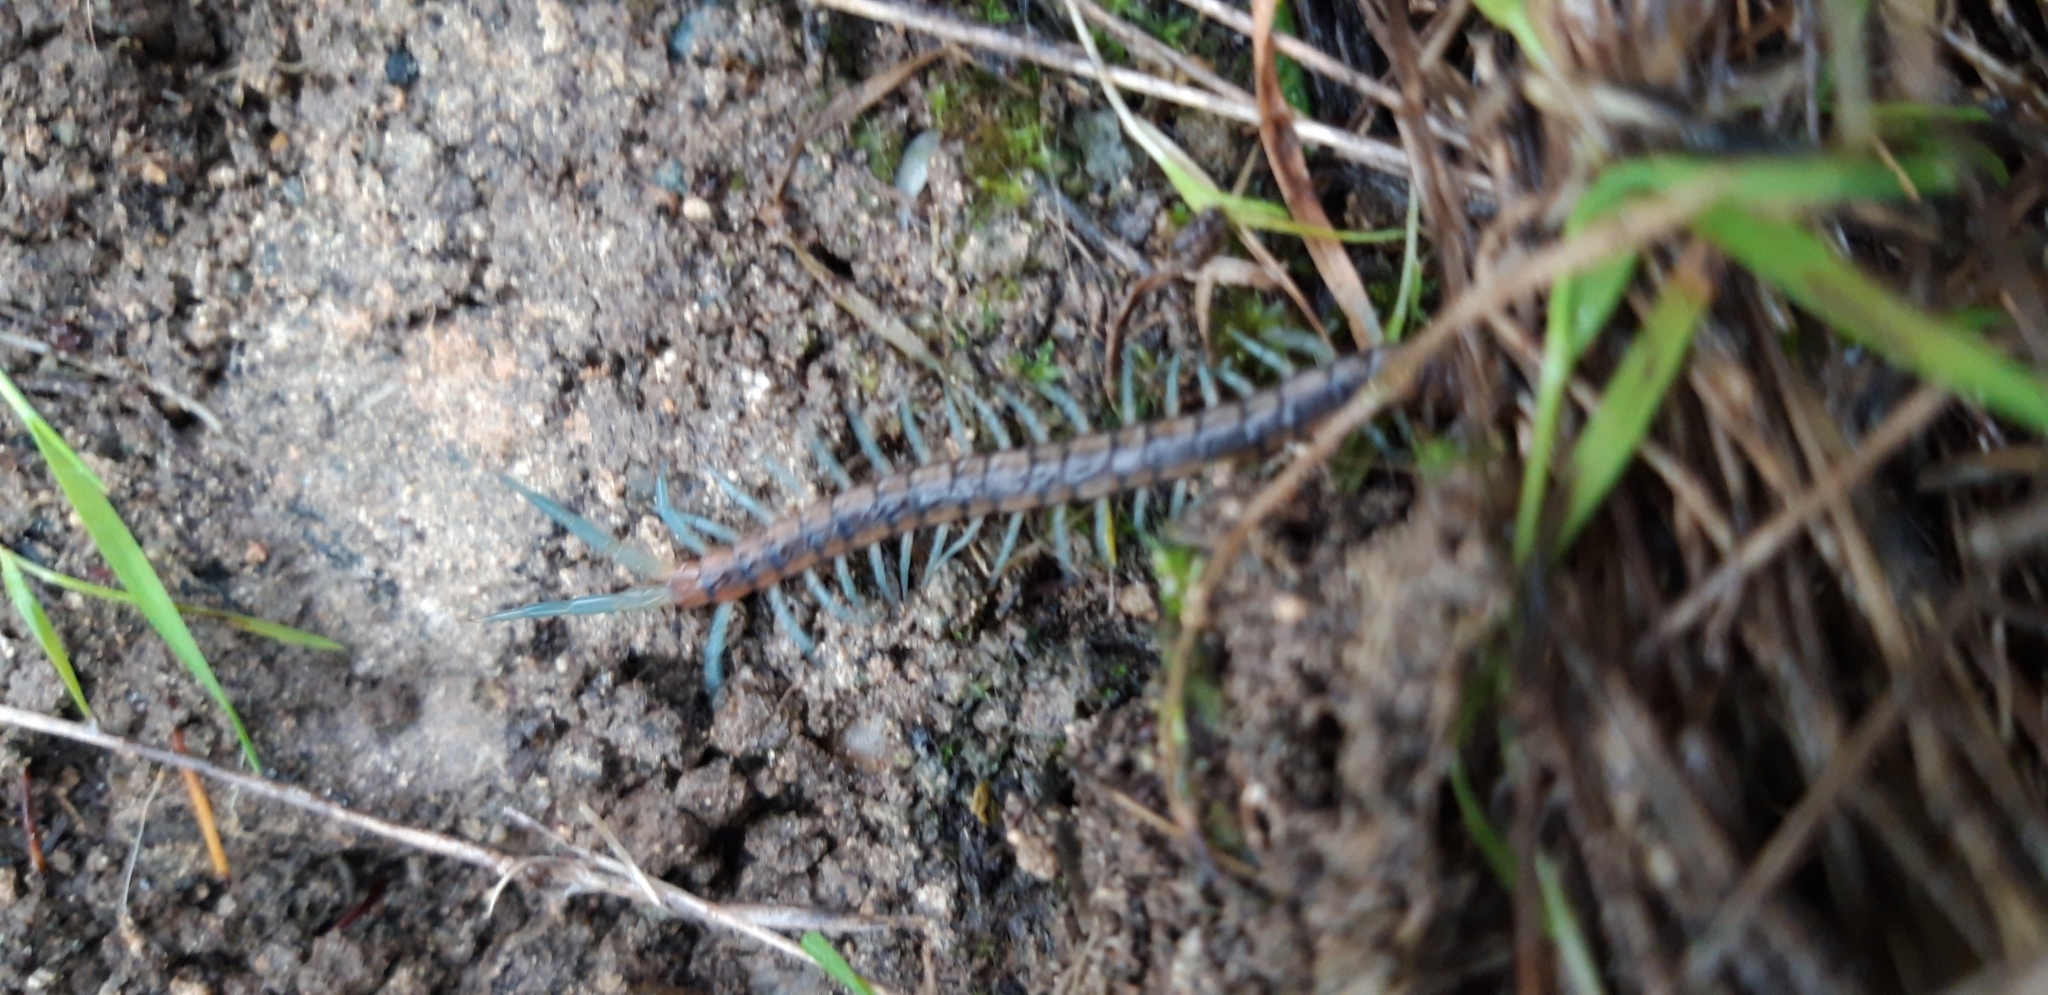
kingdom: Animalia
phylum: Arthropoda
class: Chilopoda
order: Scolopendromorpha
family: Scolopendridae
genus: Scolopendra
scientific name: Scolopendra cingulata
